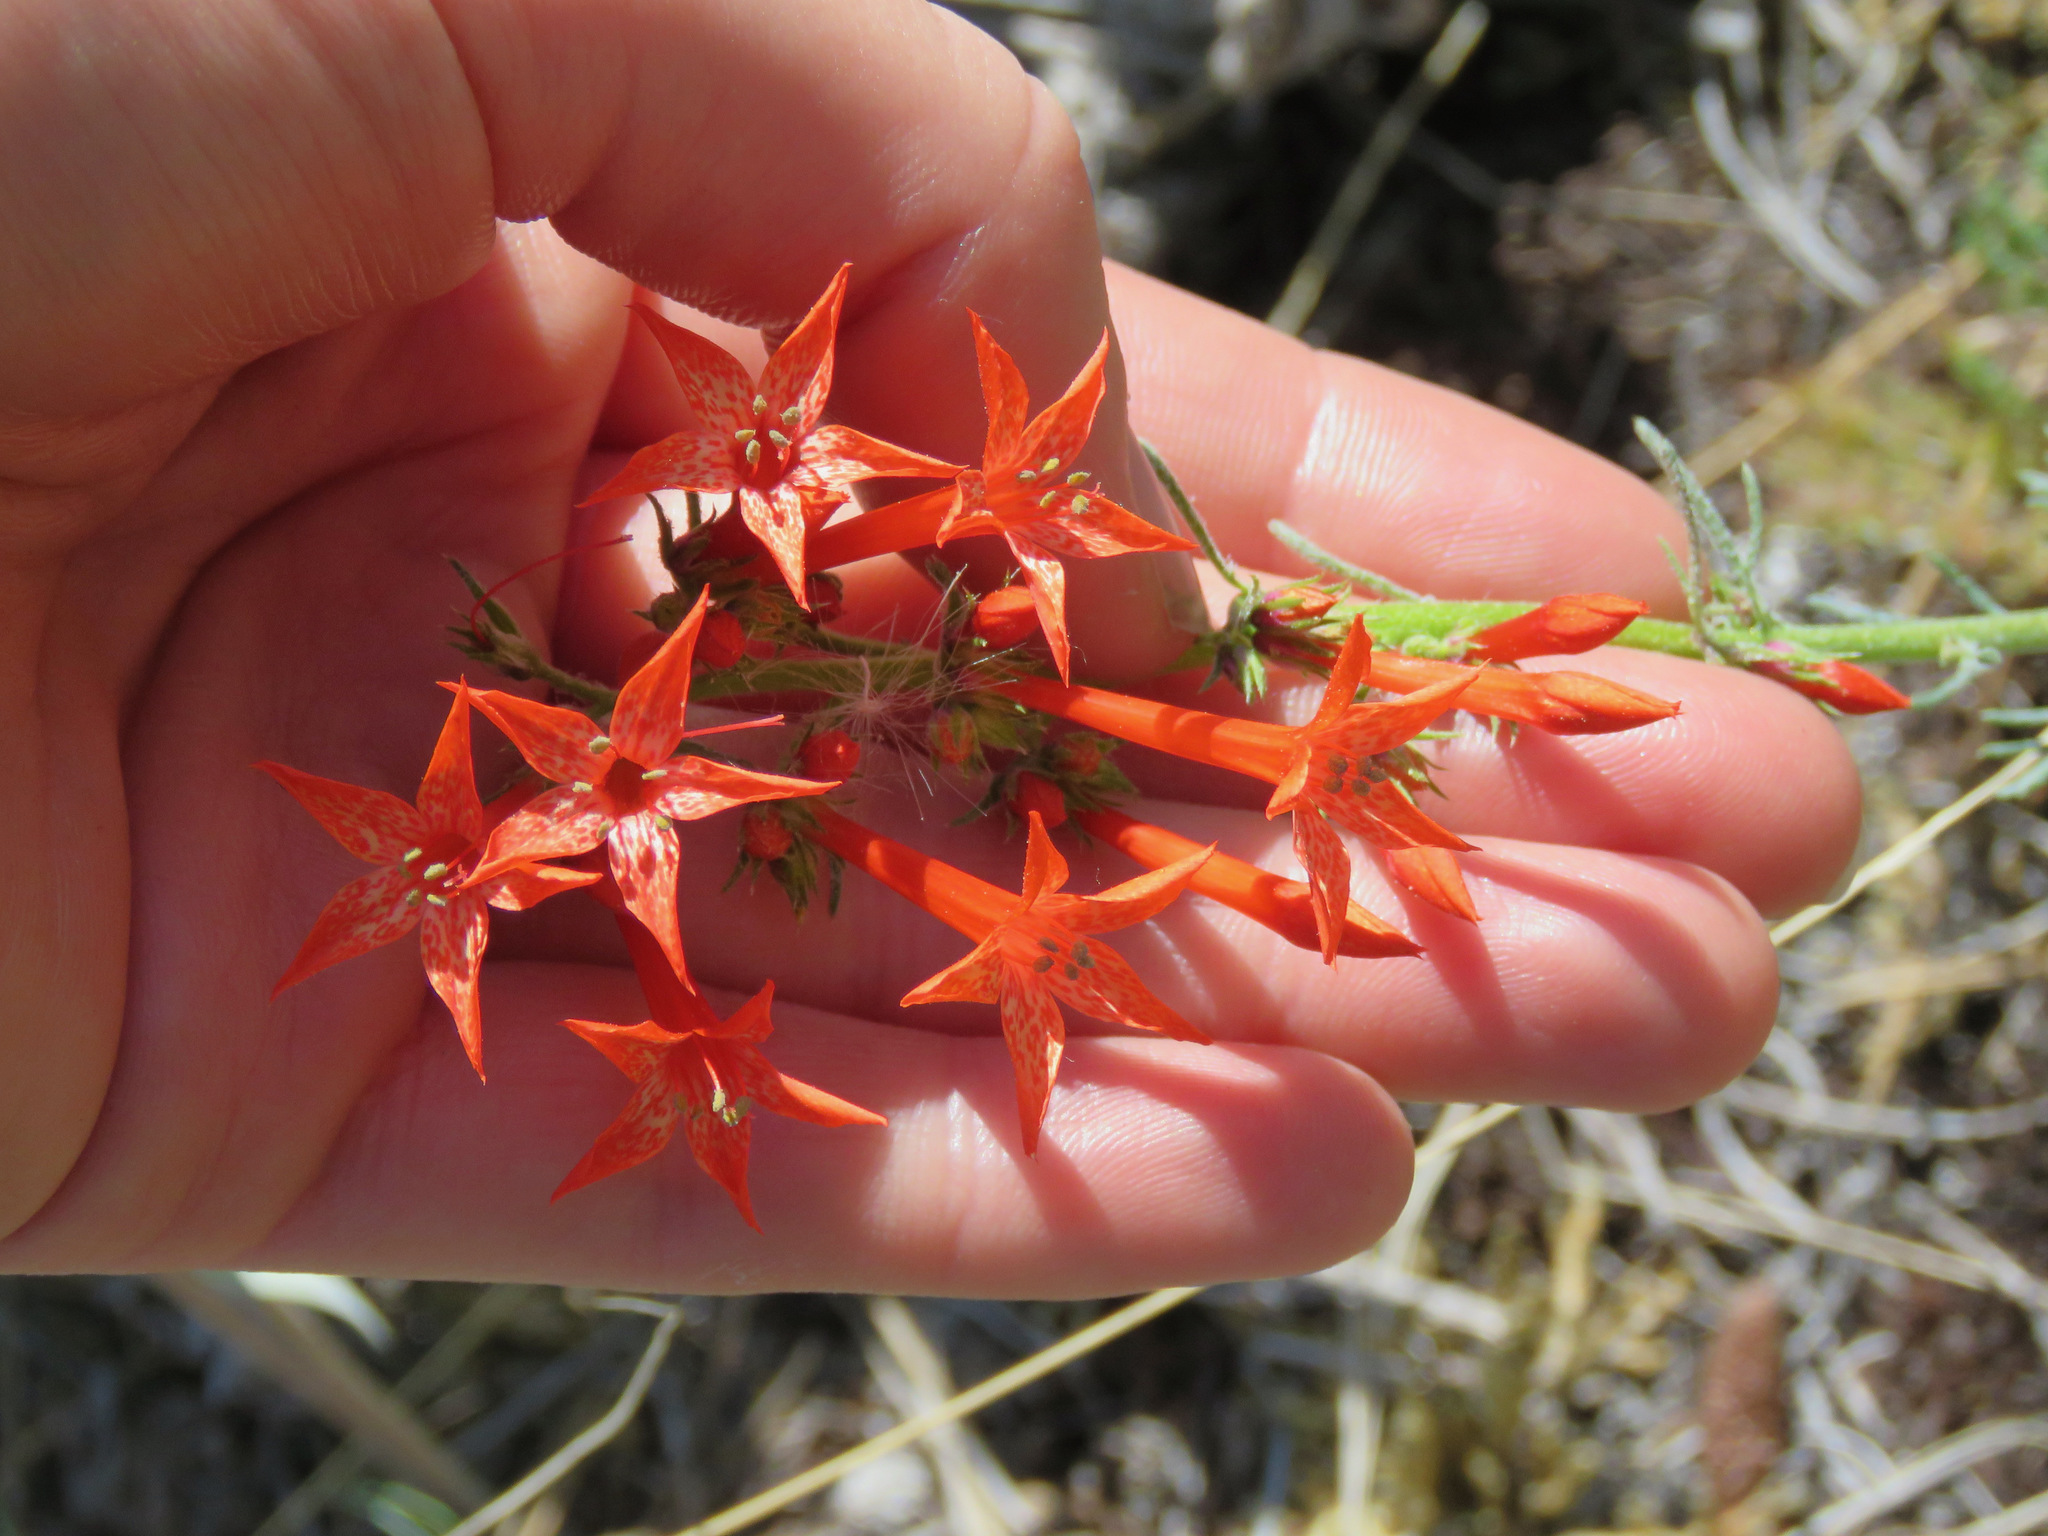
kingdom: Plantae
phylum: Tracheophyta
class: Magnoliopsida
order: Ericales
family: Polemoniaceae
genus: Ipomopsis
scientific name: Ipomopsis aggregata
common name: Scarlet gilia
